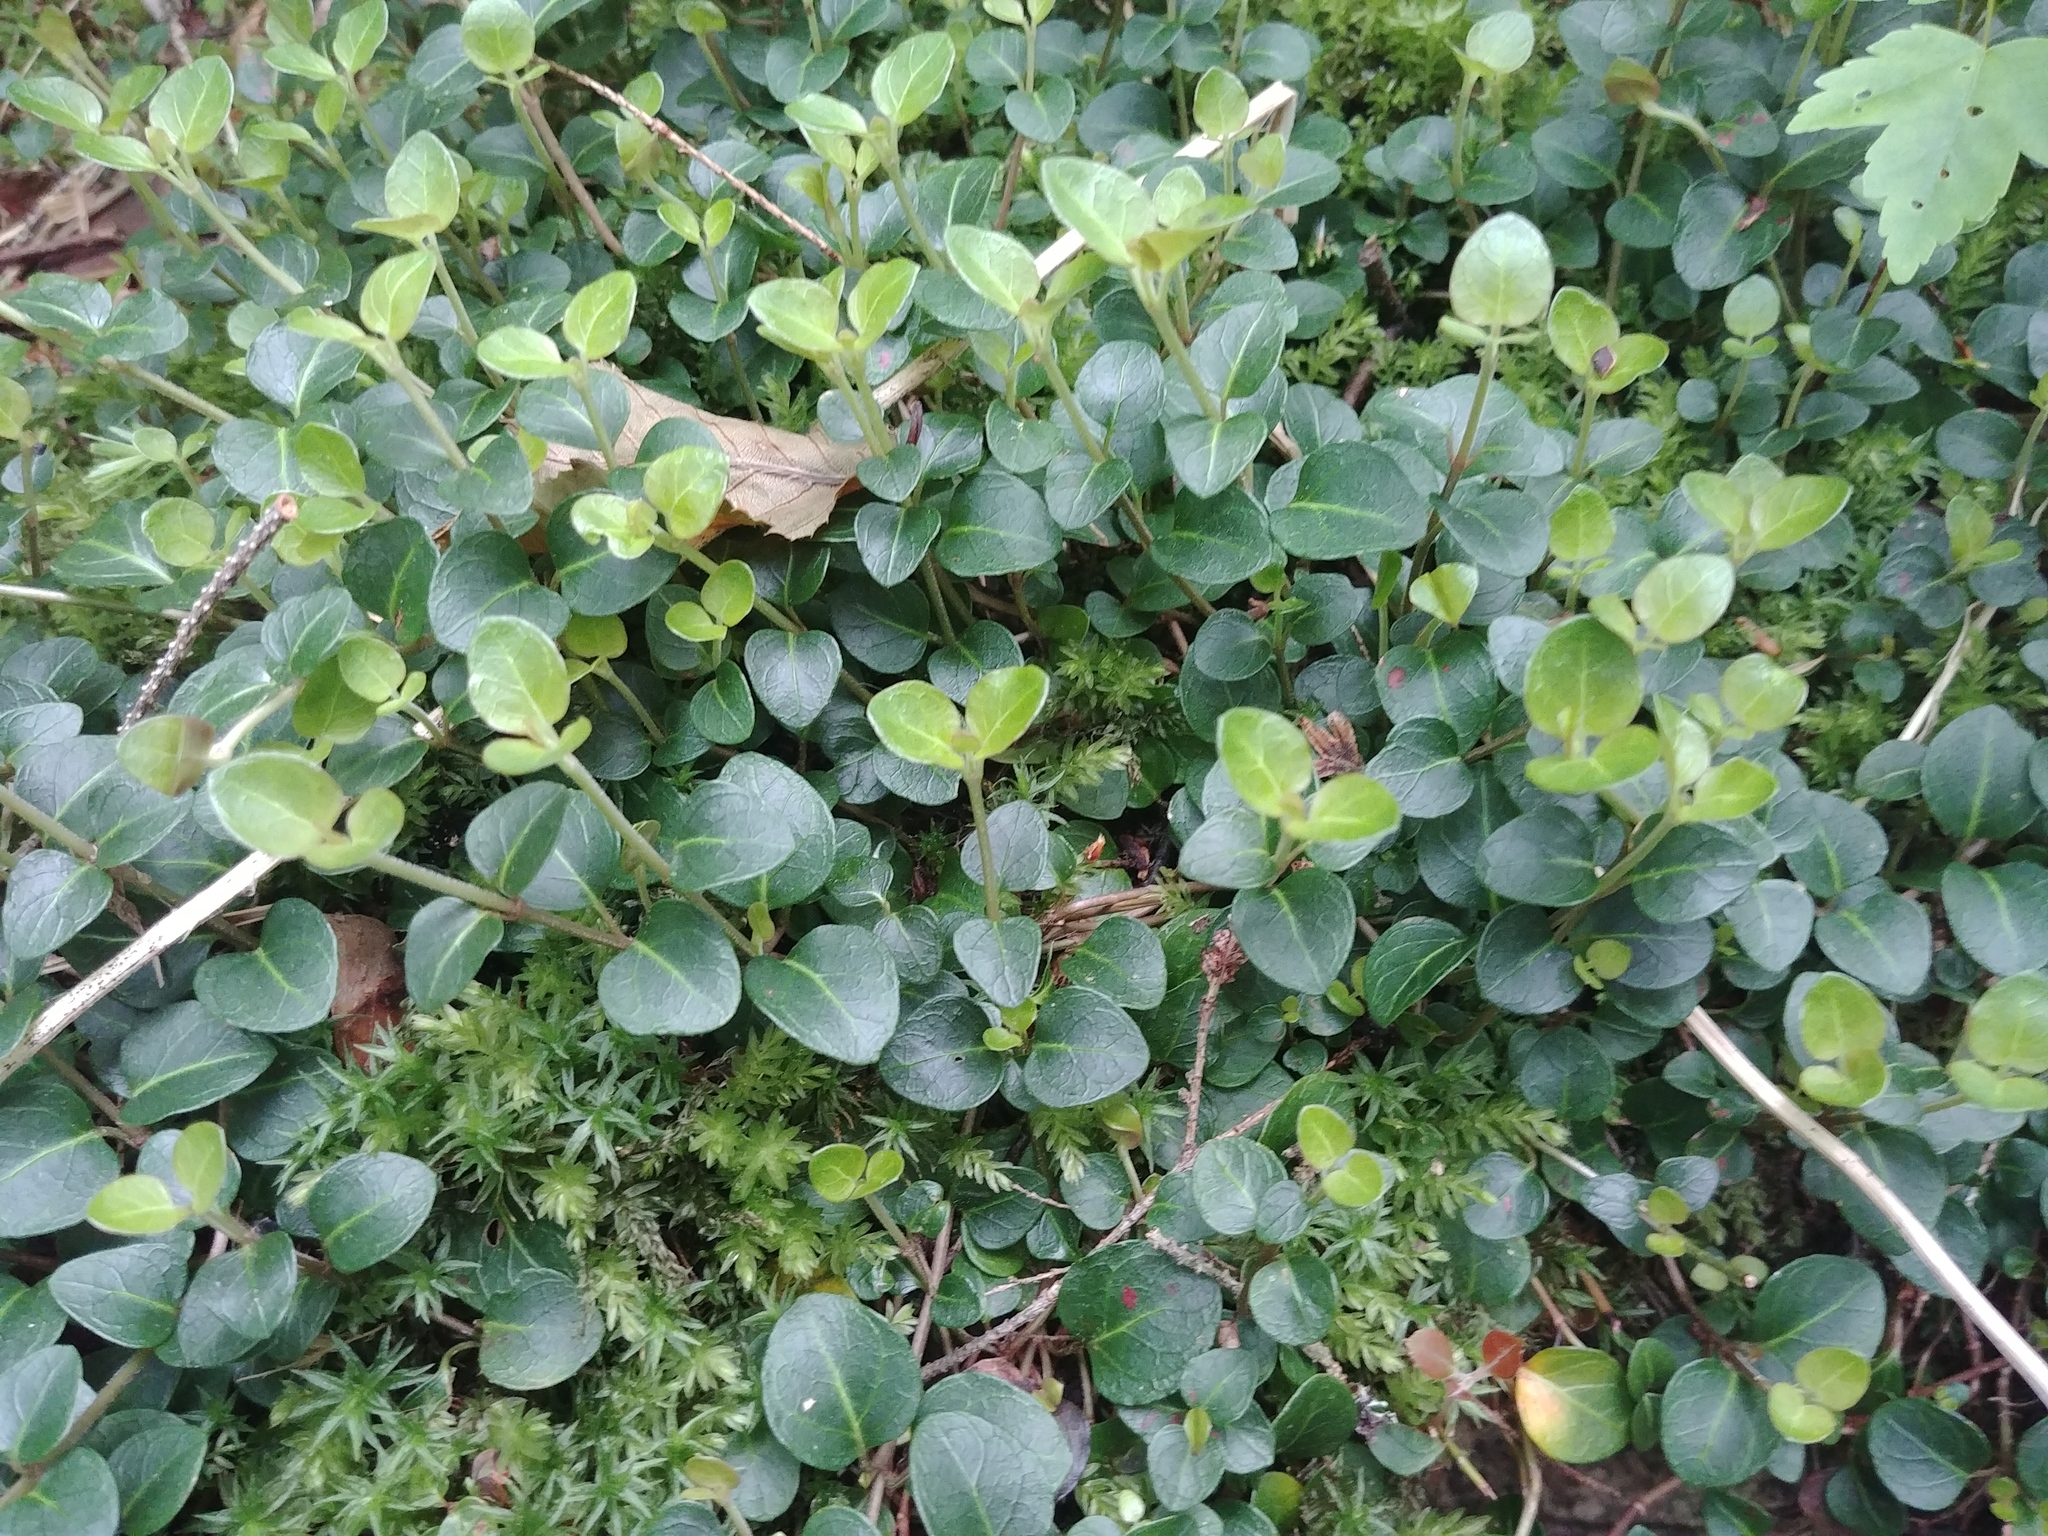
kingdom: Plantae
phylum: Tracheophyta
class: Magnoliopsida
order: Gentianales
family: Rubiaceae
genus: Mitchella
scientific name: Mitchella repens
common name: Partridge-berry
